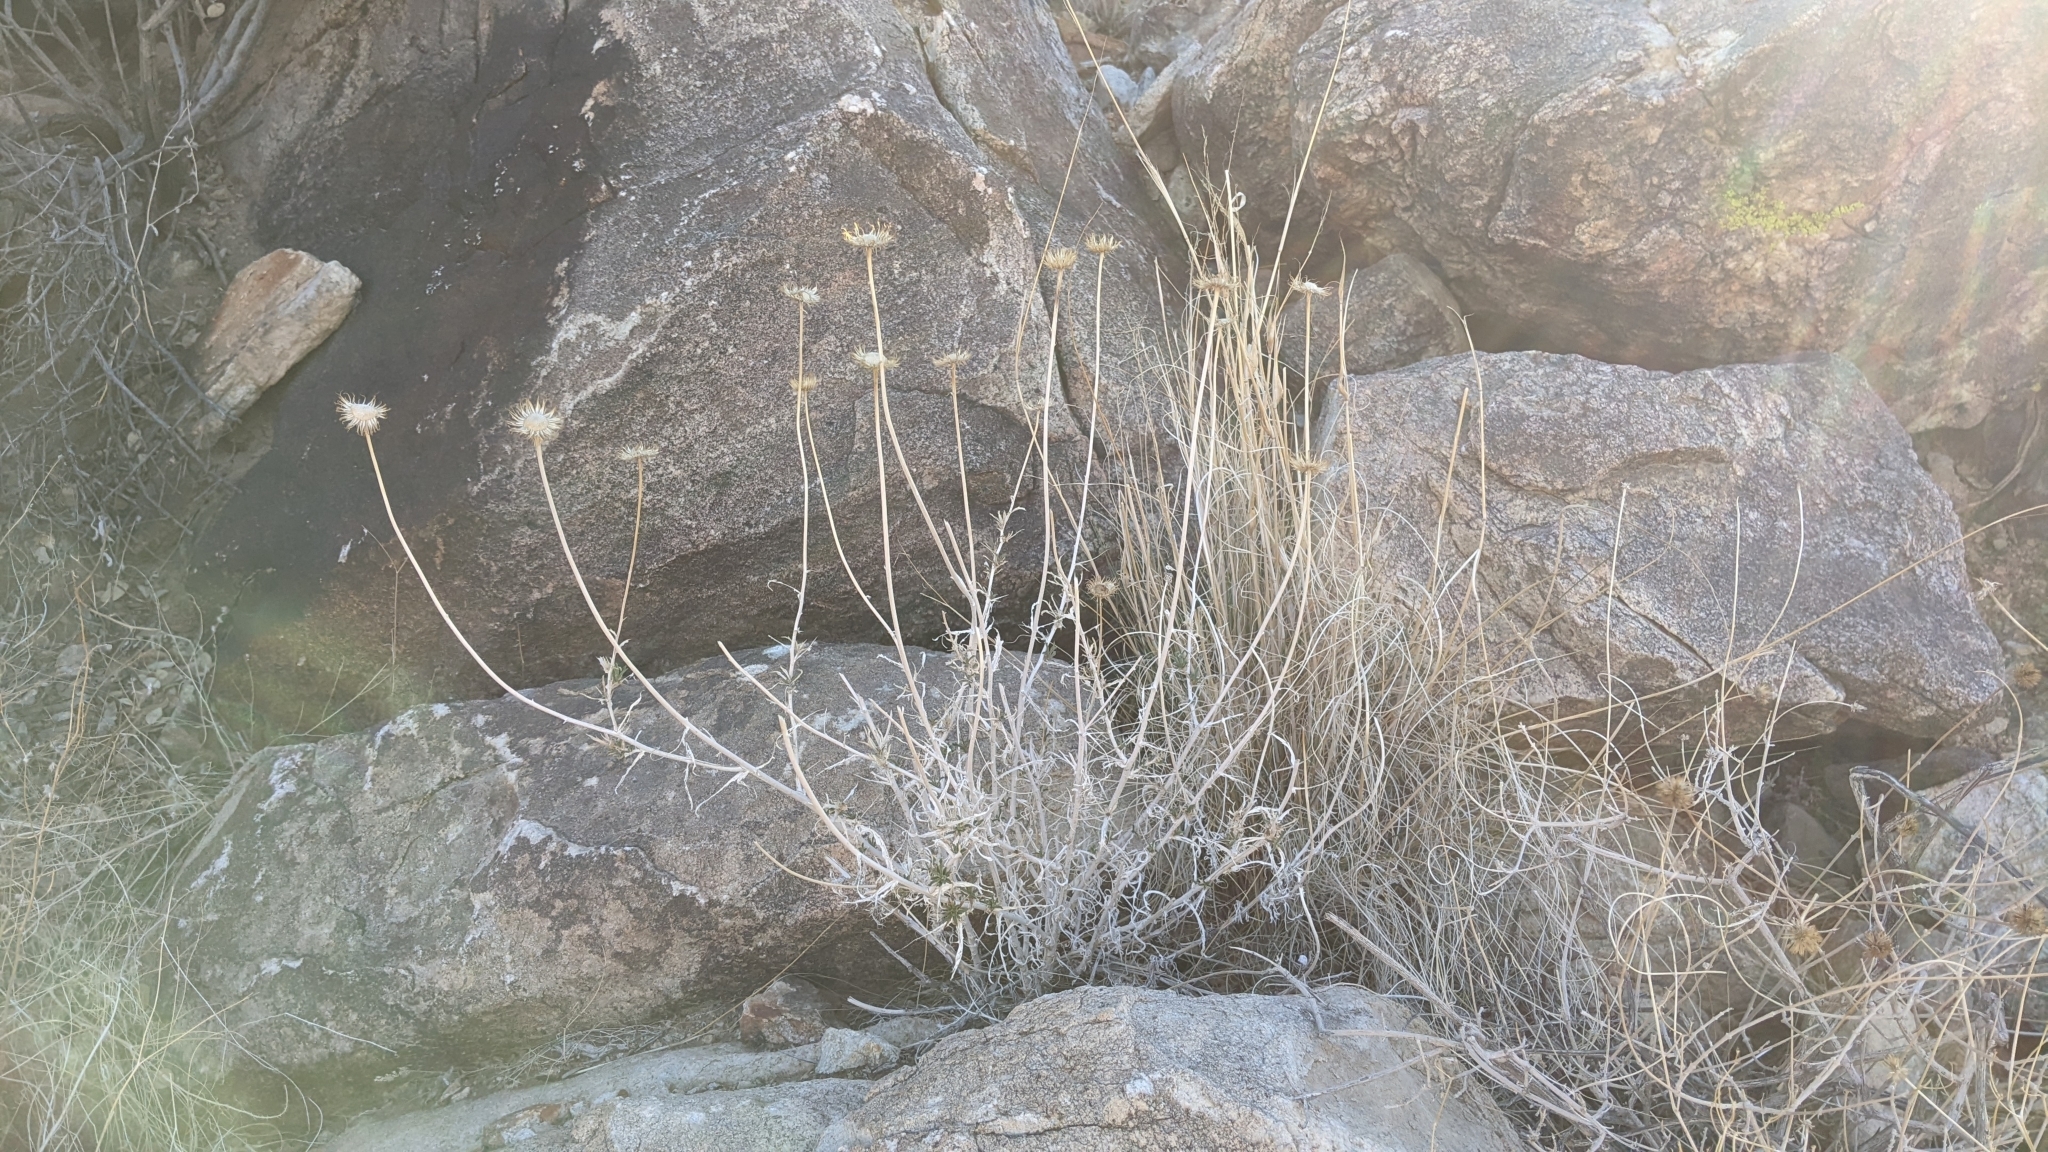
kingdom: Plantae
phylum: Tracheophyta
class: Magnoliopsida
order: Asterales
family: Asteraceae
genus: Xylorhiza
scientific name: Xylorhiza tortifolia
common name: Hurt-leaf woody-aster
